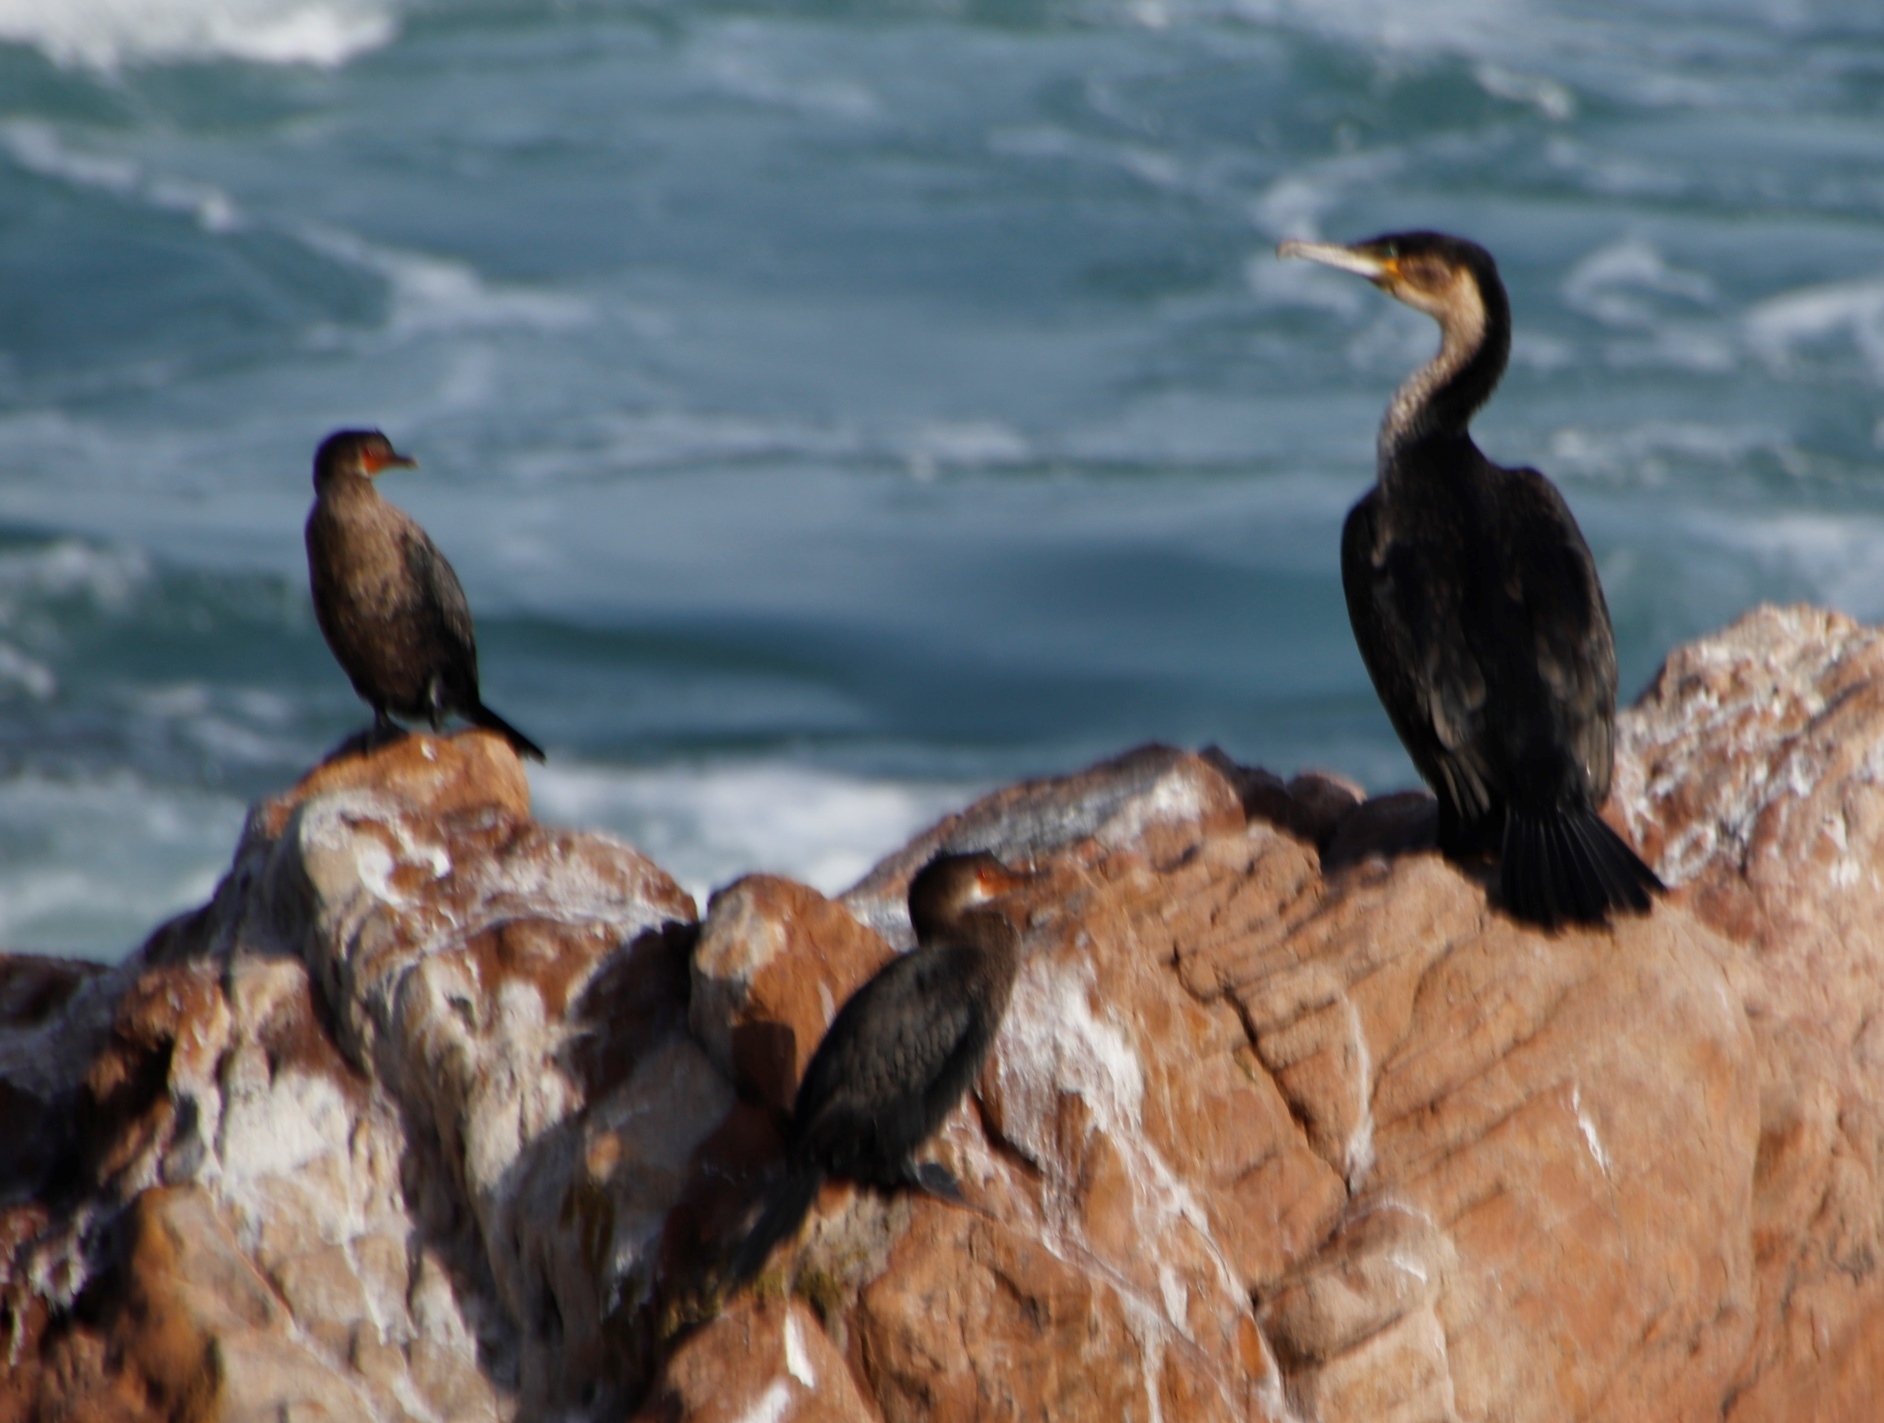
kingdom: Animalia
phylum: Chordata
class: Aves
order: Suliformes
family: Phalacrocoracidae
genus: Microcarbo
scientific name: Microcarbo coronatus
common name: Crowned cormorant
